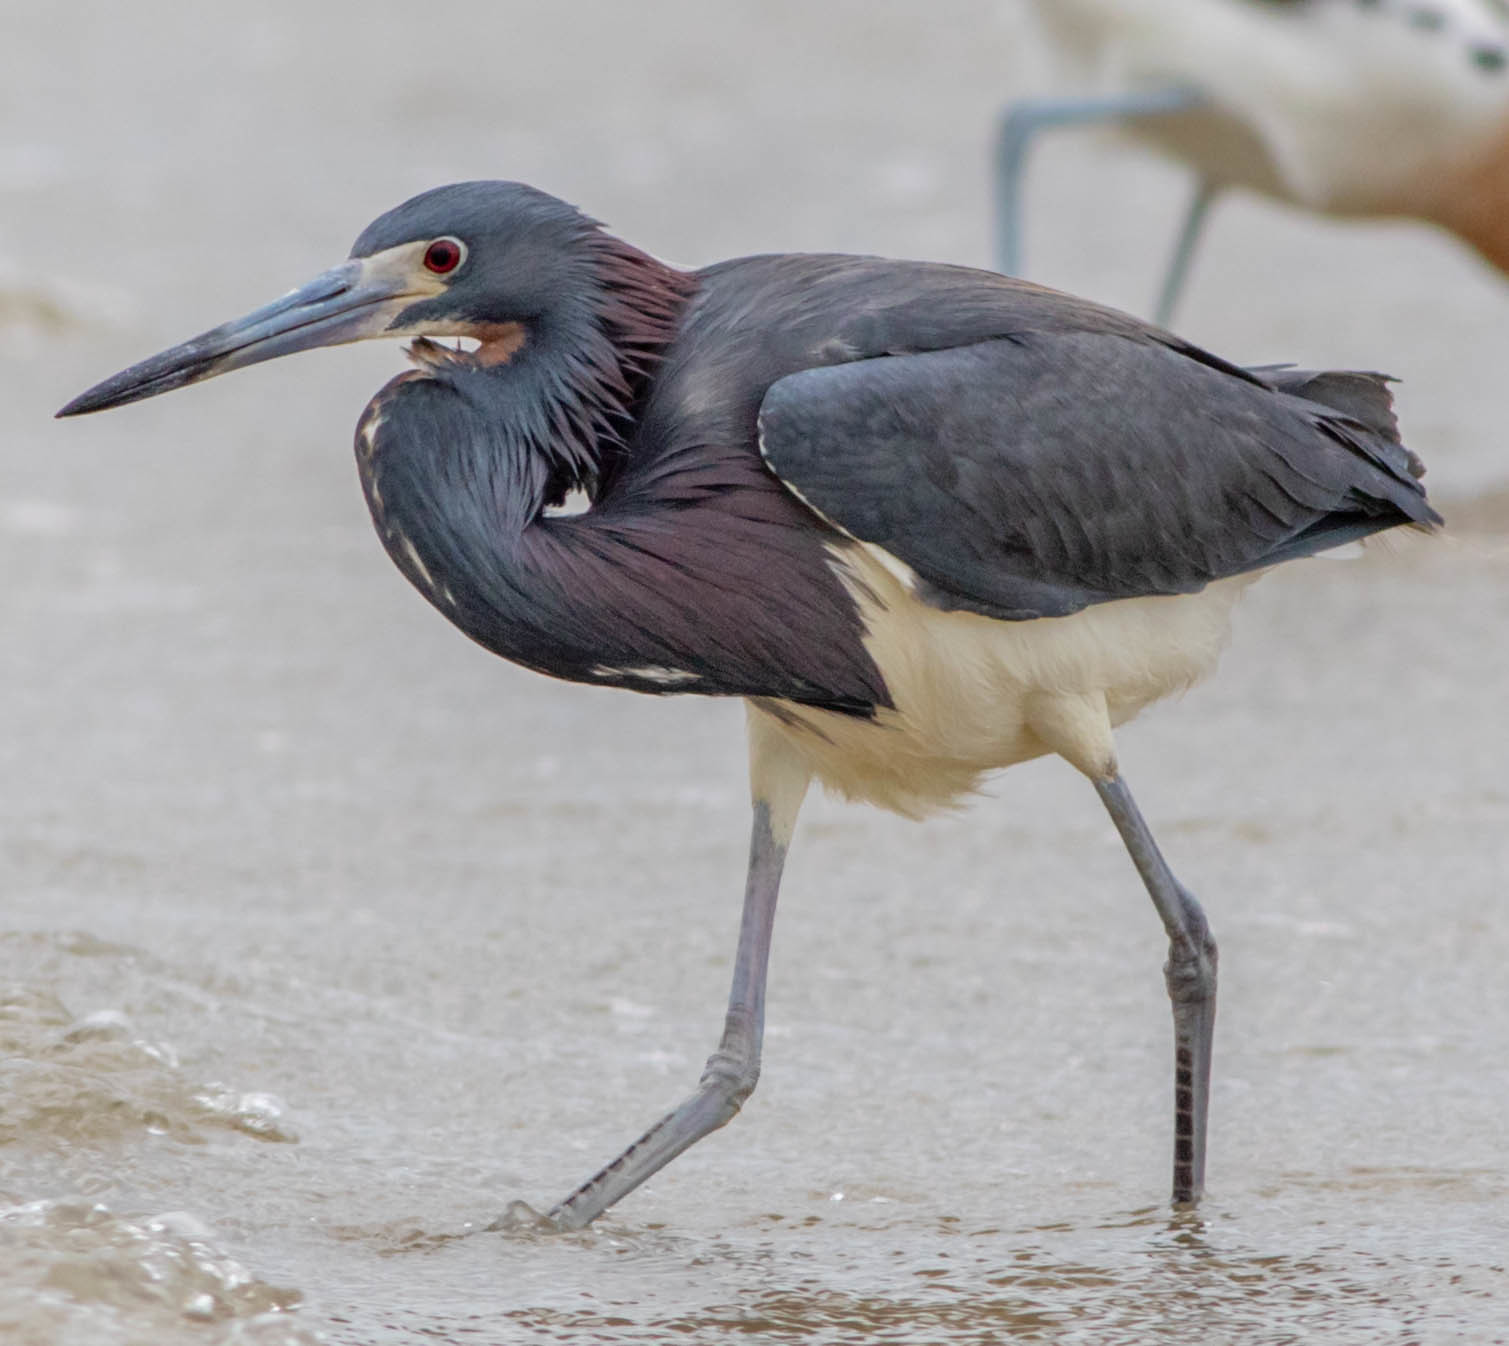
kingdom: Animalia
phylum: Chordata
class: Aves
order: Pelecaniformes
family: Ardeidae
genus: Egretta
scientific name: Egretta tricolor
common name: Tricolored heron
